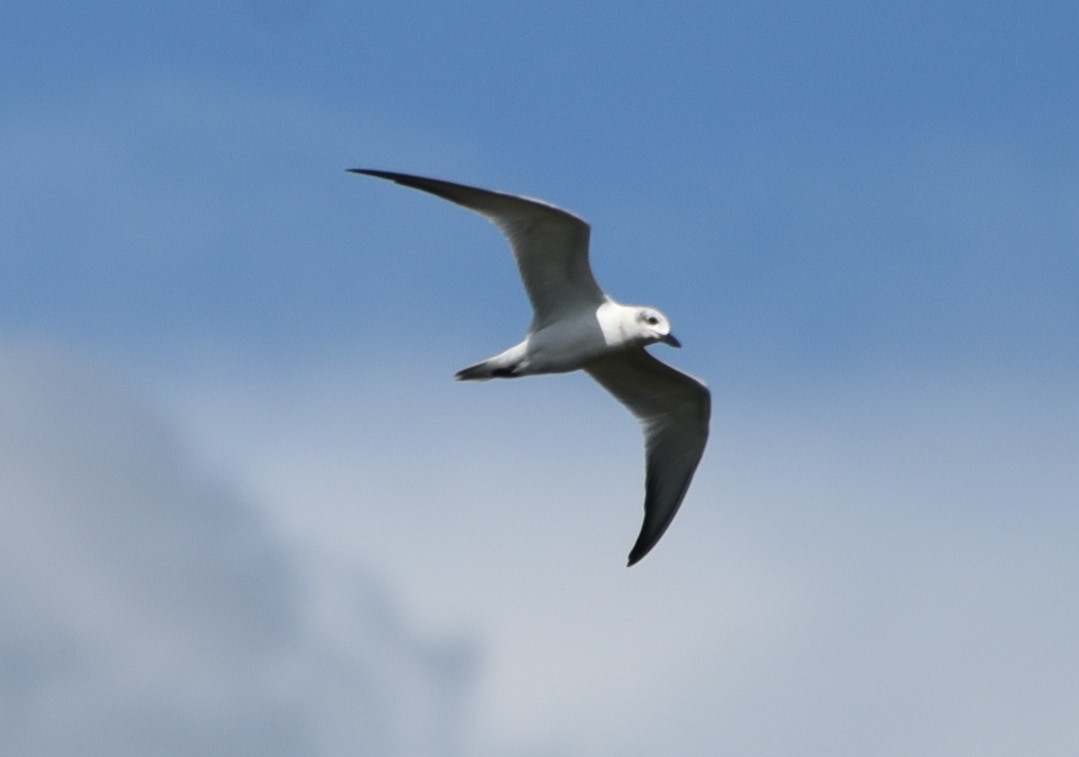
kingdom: Animalia
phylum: Chordata
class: Aves
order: Charadriiformes
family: Laridae
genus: Gelochelidon
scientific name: Gelochelidon nilotica
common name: Gull-billed tern
